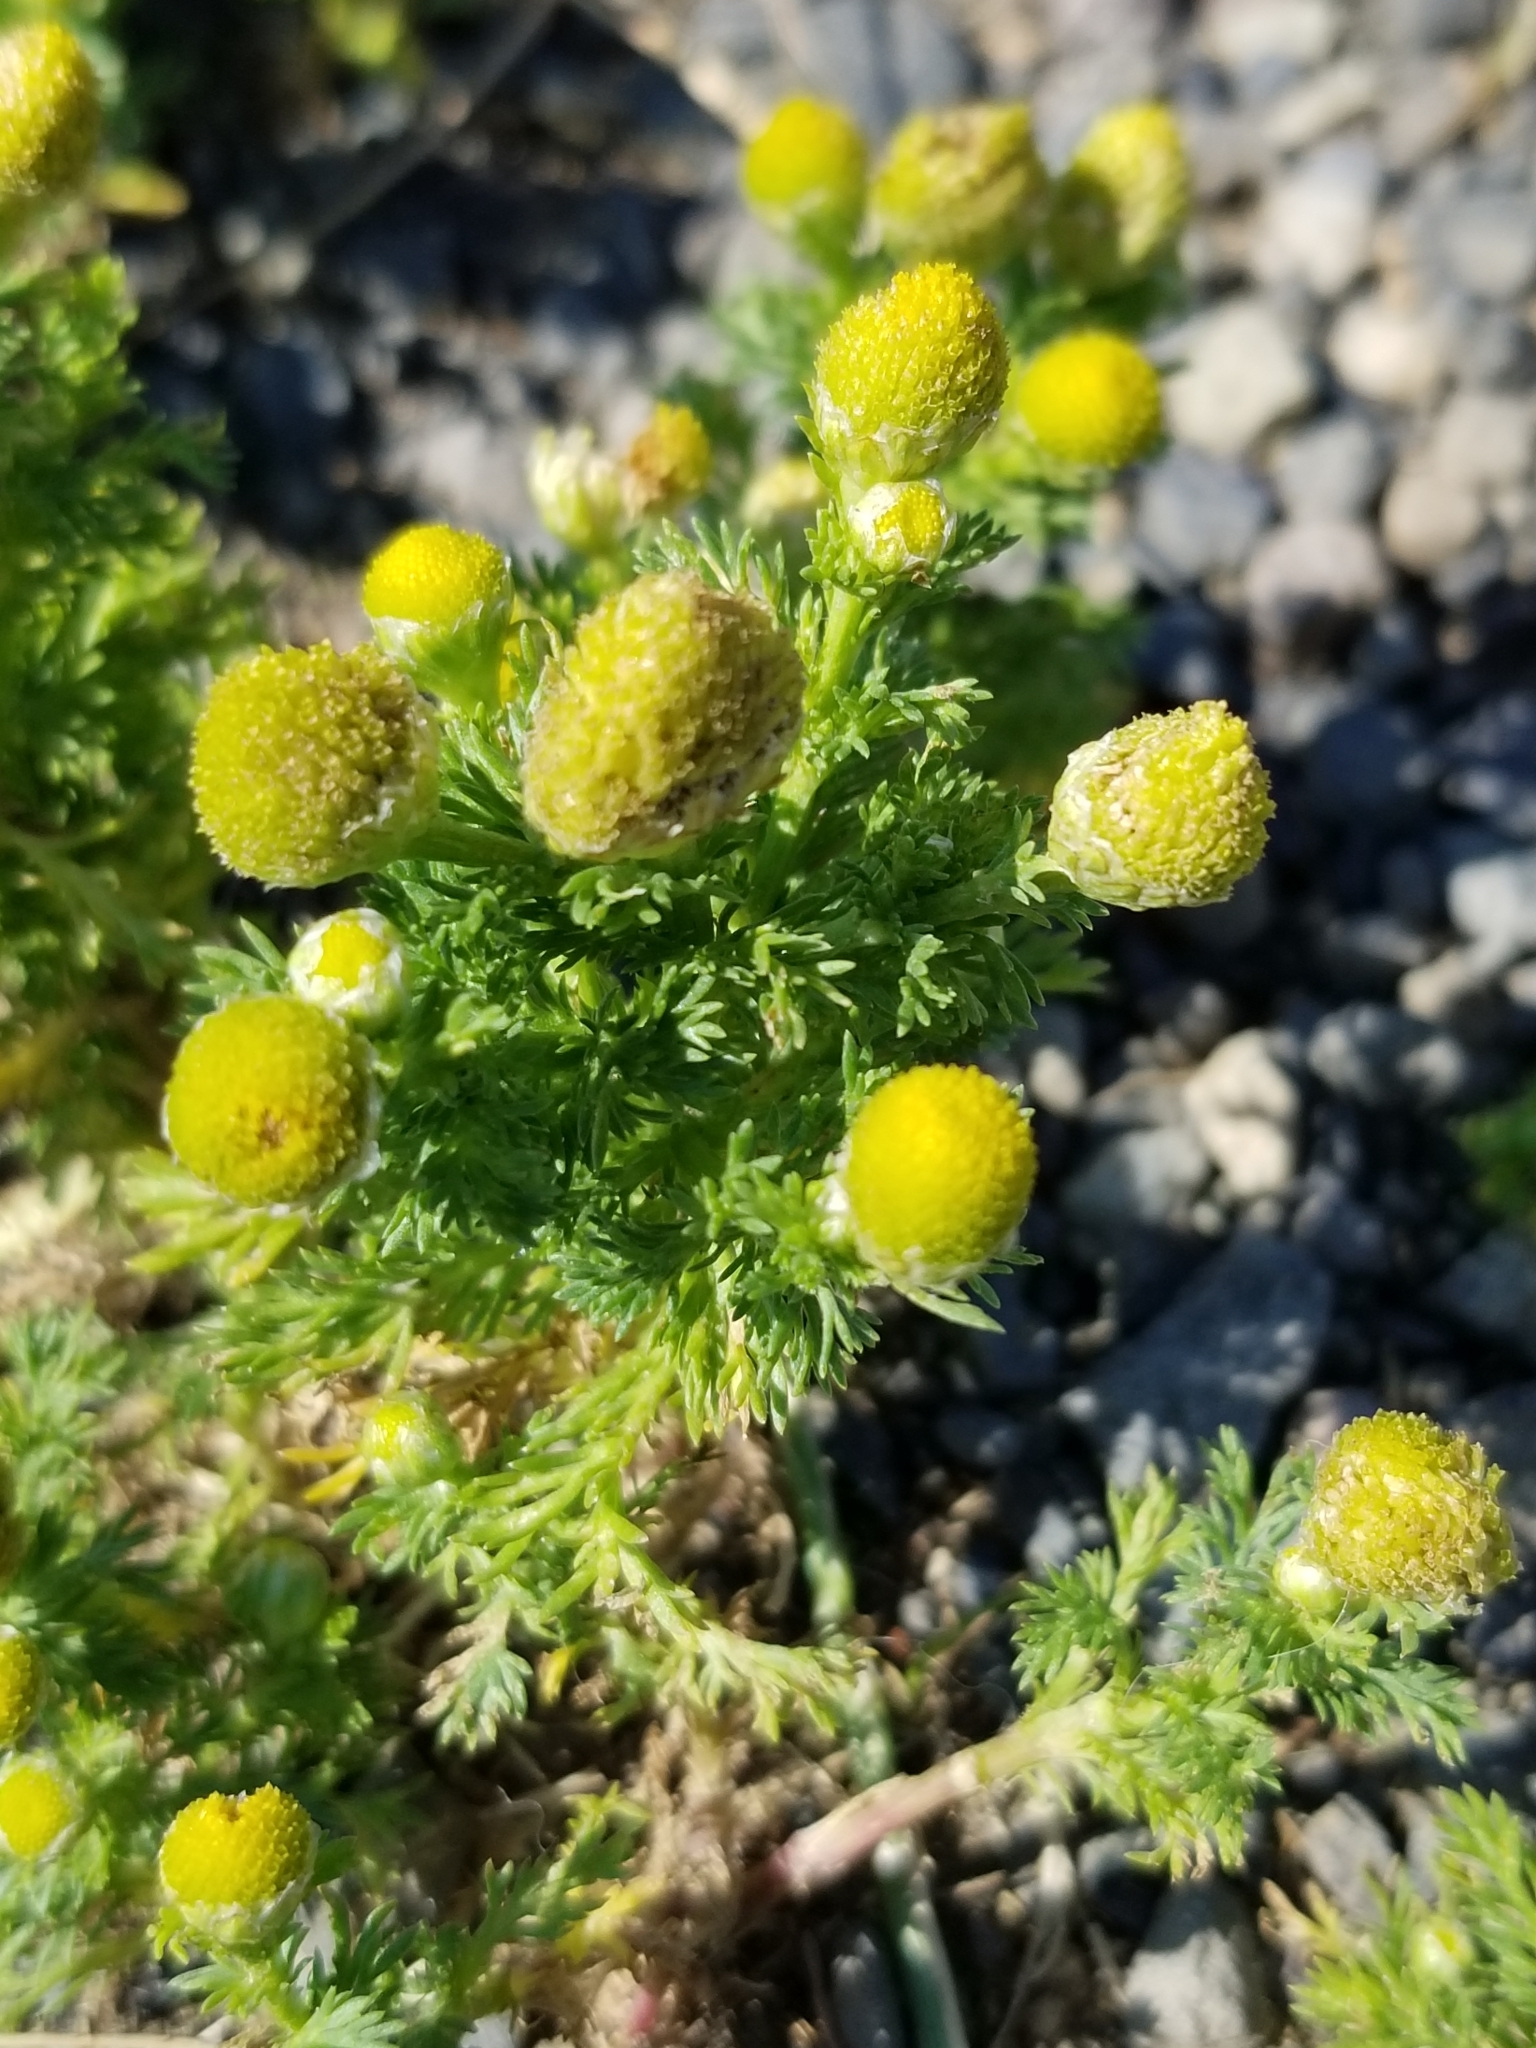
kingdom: Plantae
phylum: Tracheophyta
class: Magnoliopsida
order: Asterales
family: Asteraceae
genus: Matricaria
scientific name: Matricaria discoidea
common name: Disc mayweed
